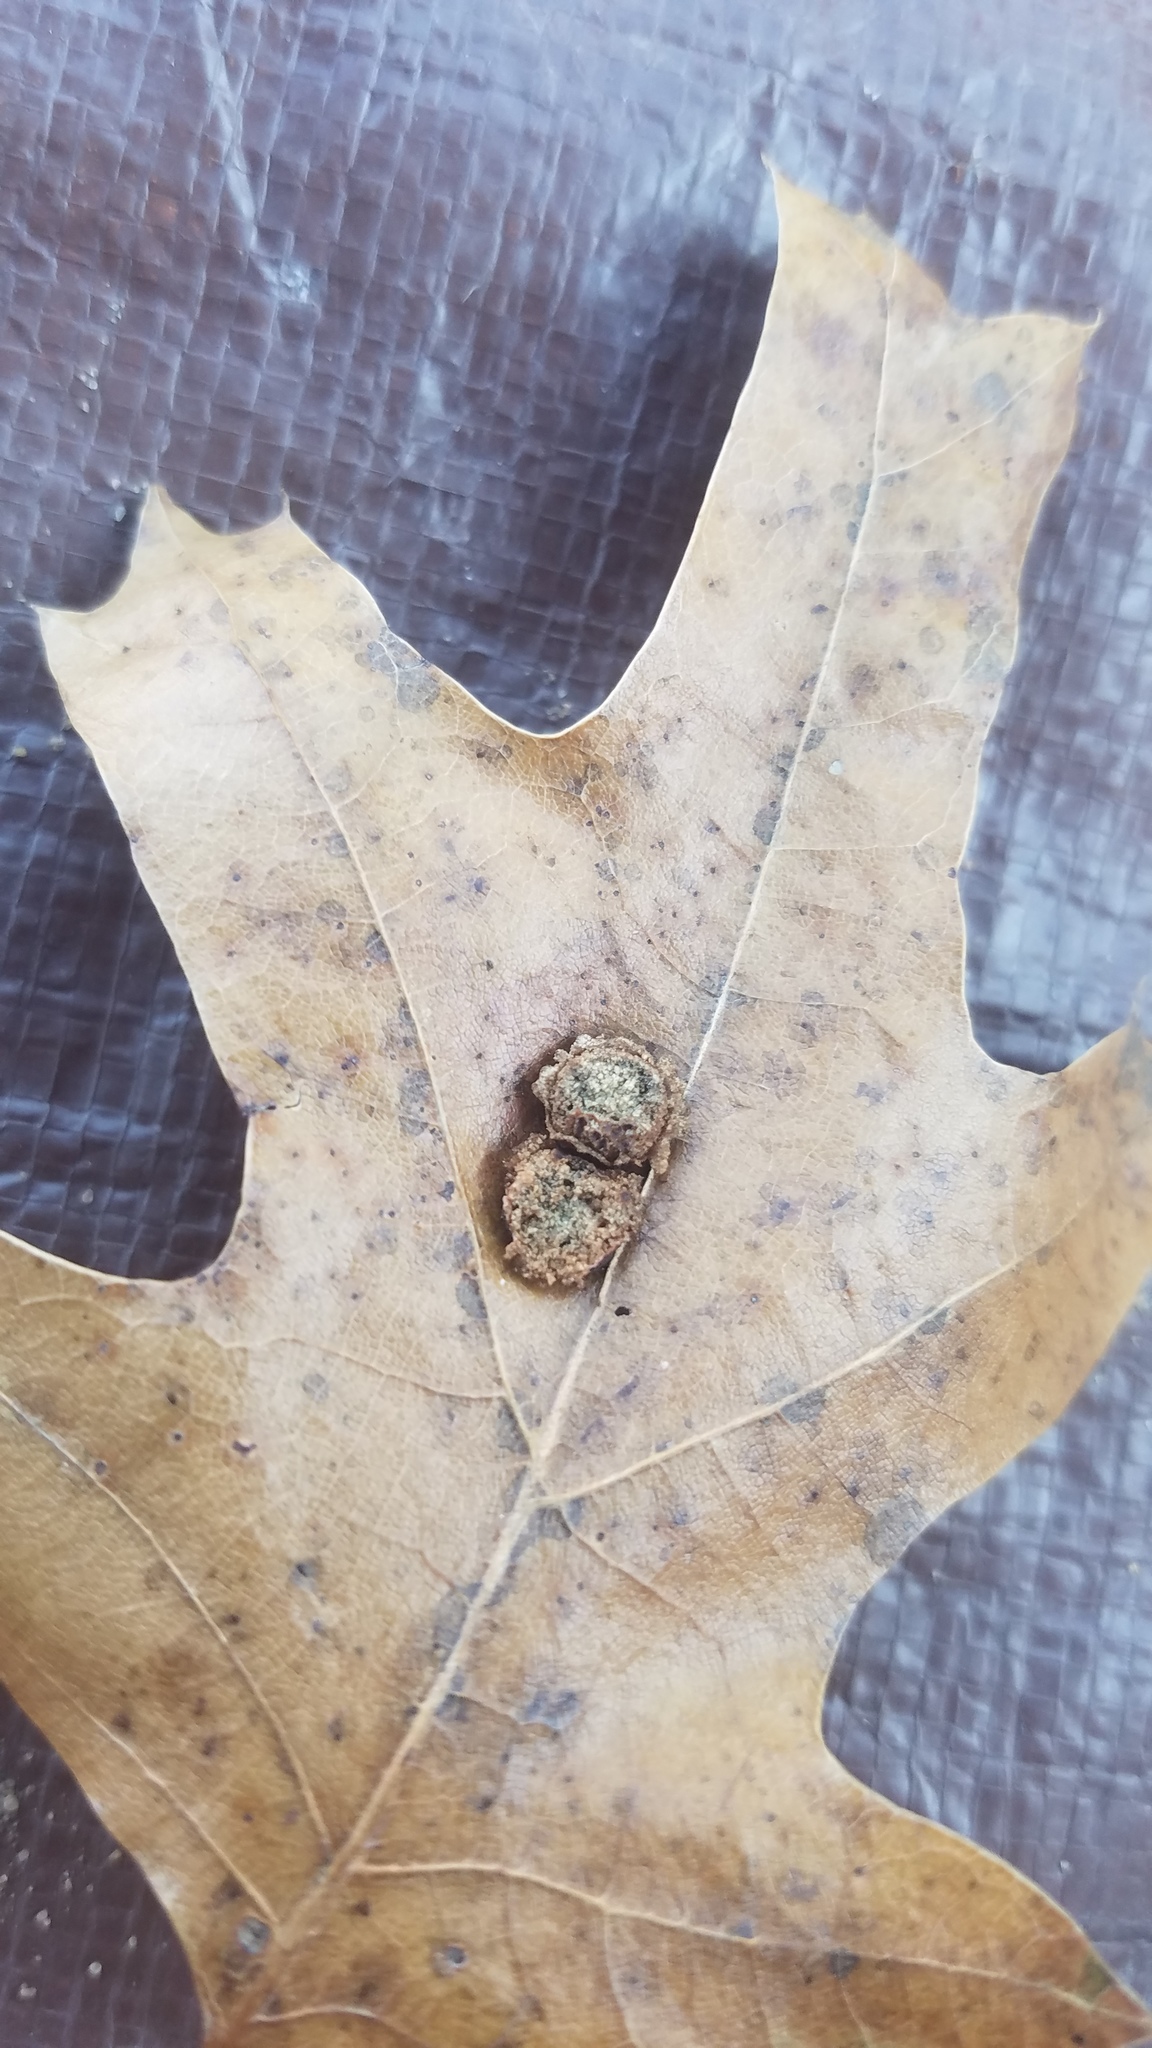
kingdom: Animalia
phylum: Arthropoda
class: Insecta
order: Diptera
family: Cecidomyiidae
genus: Polystepha
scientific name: Polystepha pilulae
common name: Oak leaf gall midge
